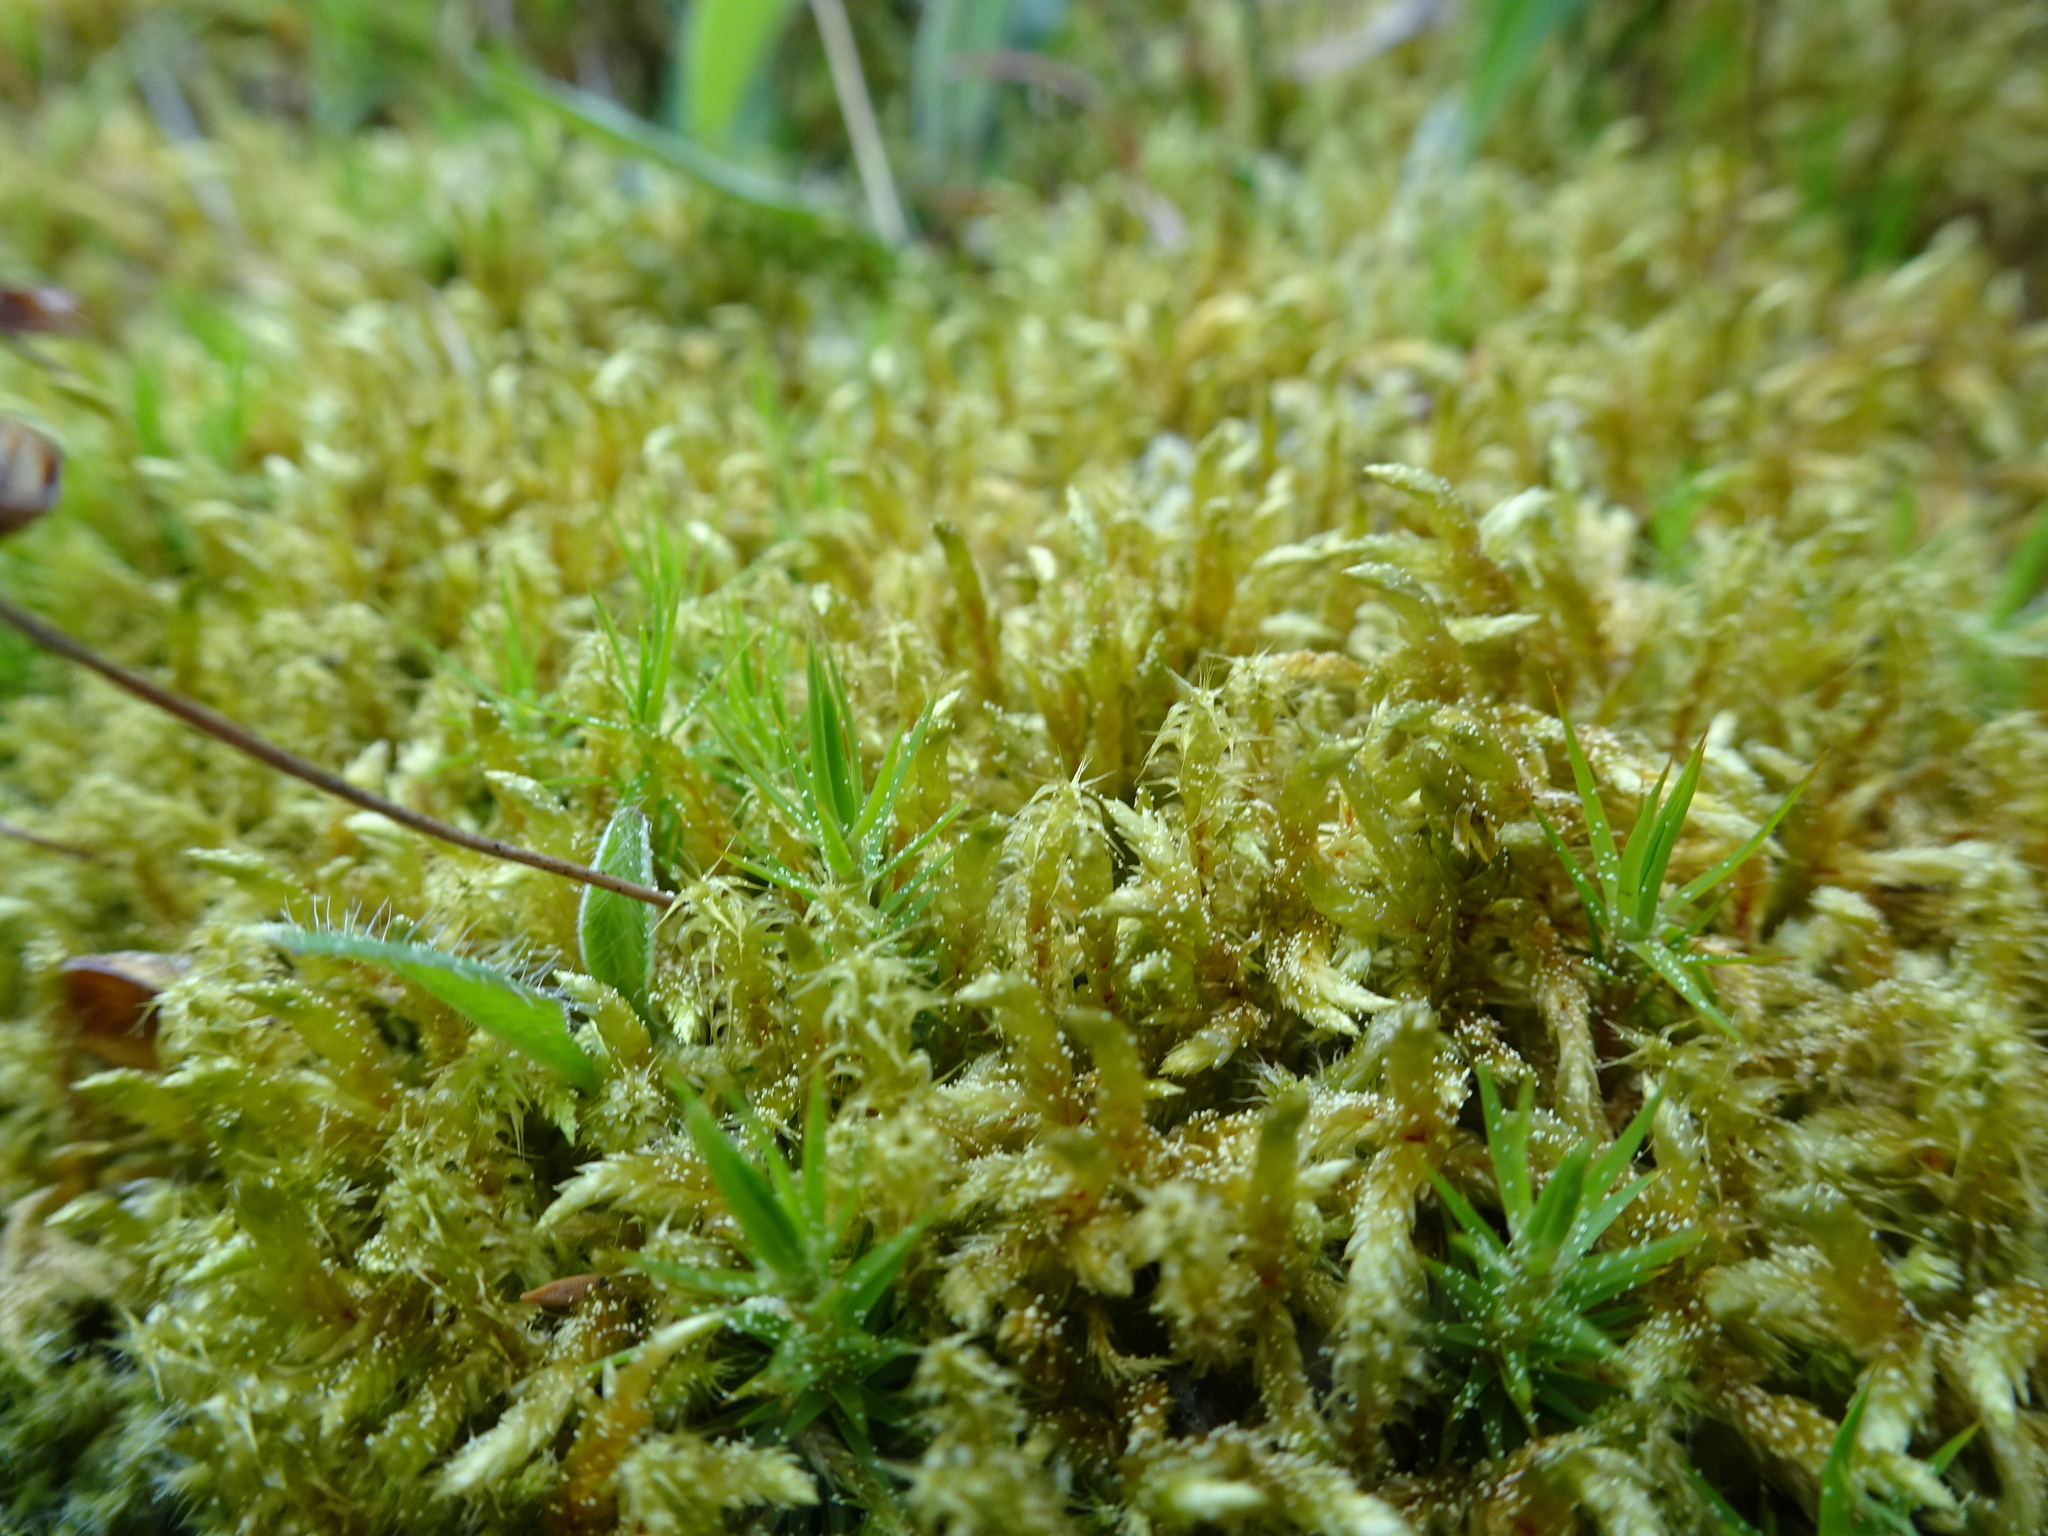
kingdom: Plantae
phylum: Bryophyta
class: Bryopsida
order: Hypnales
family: Hylocomiaceae
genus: Rhytidiadelphus
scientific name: Rhytidiadelphus squarrosus
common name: Springy turf-moss
